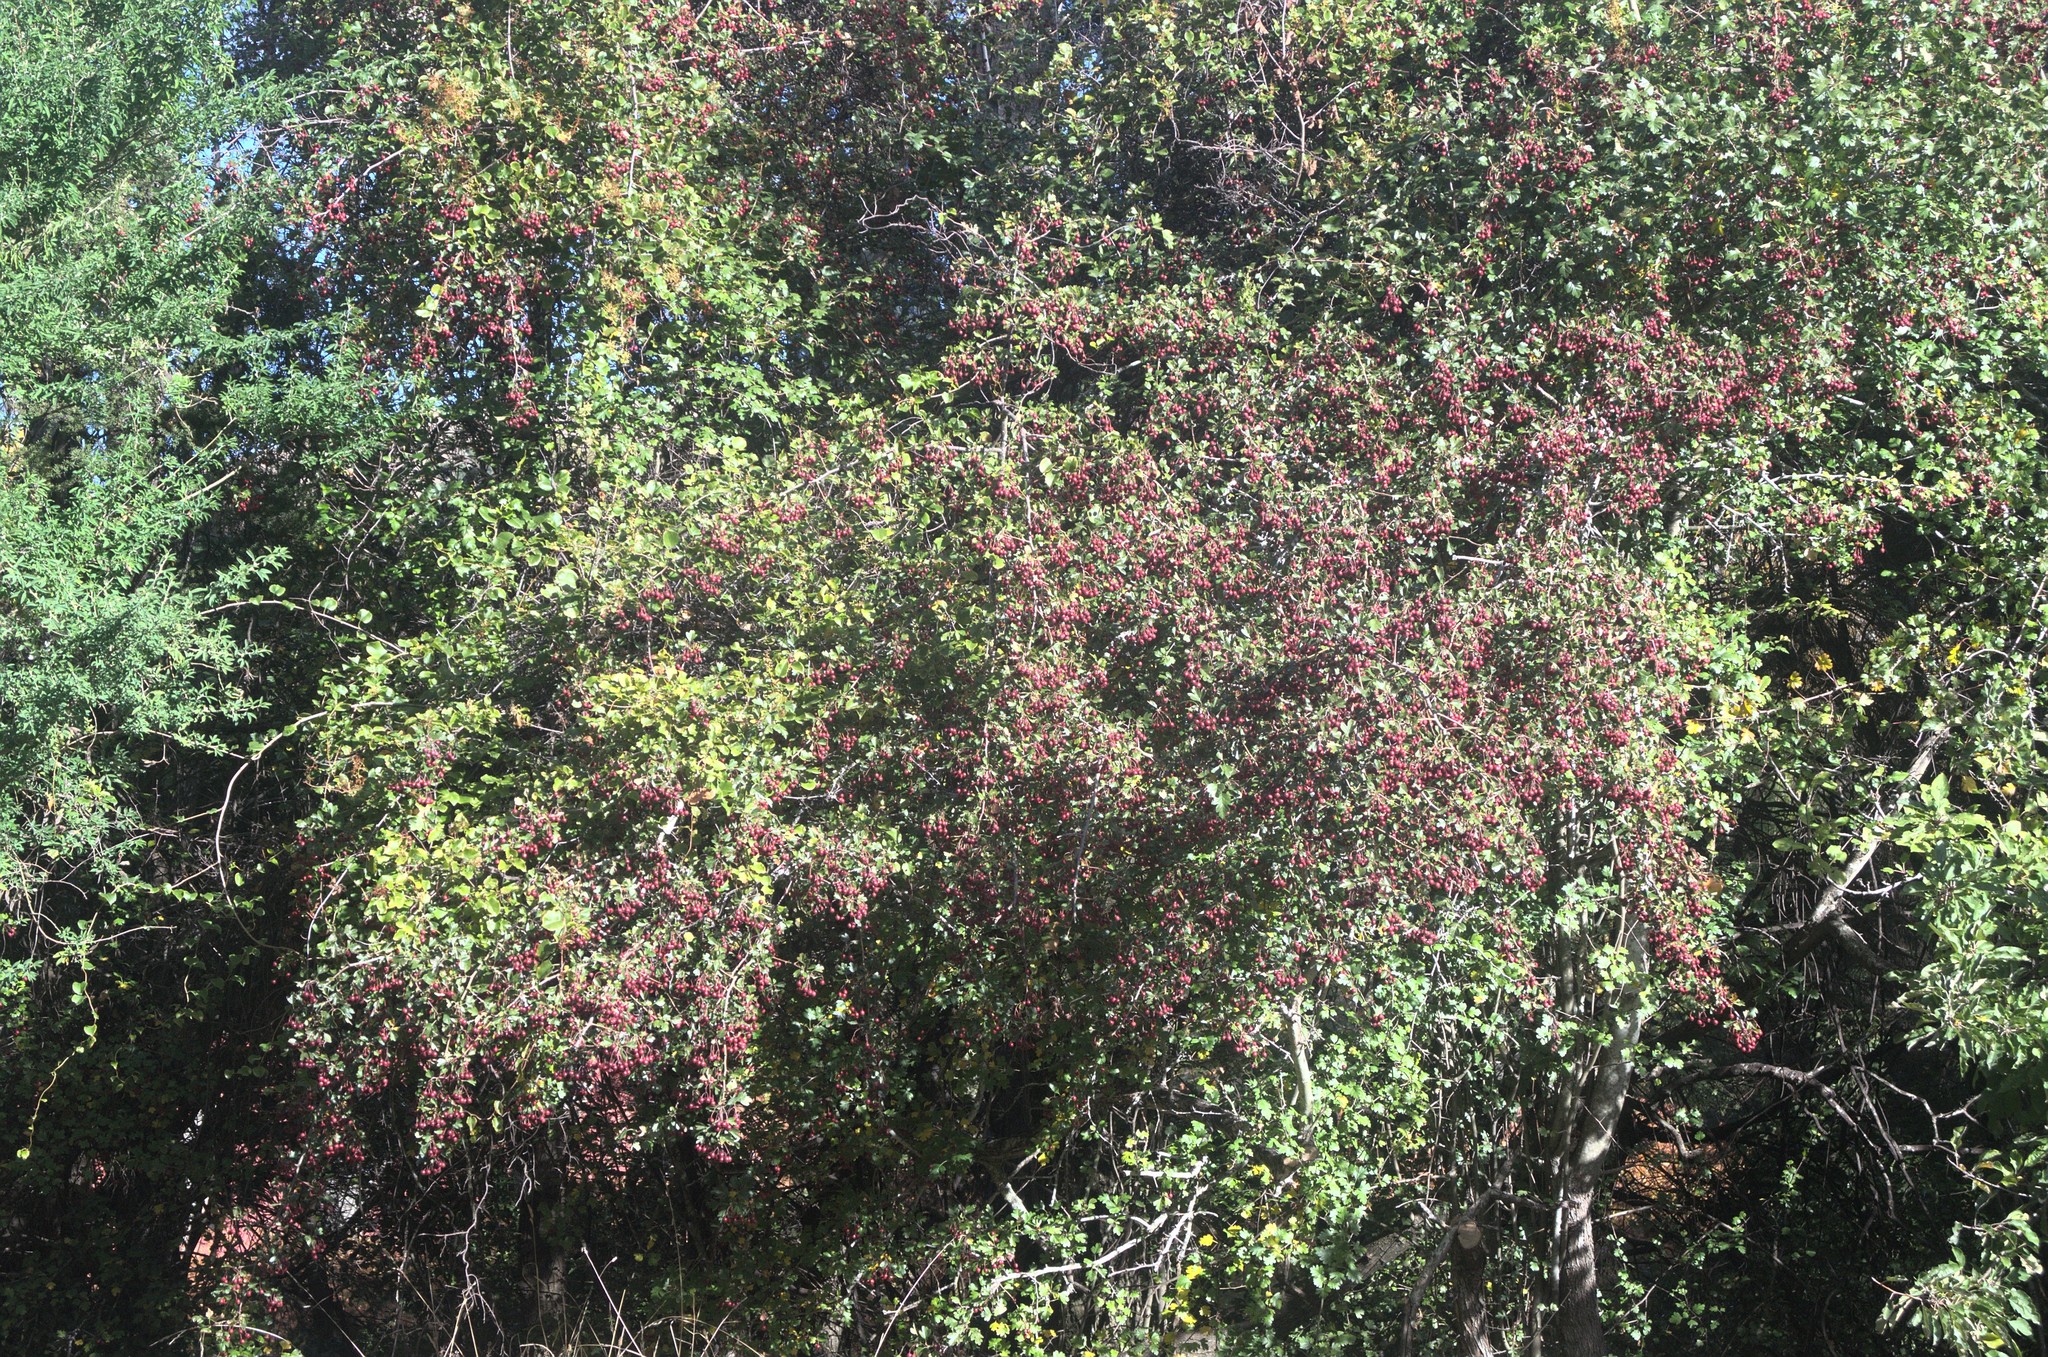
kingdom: Plantae
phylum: Tracheophyta
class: Magnoliopsida
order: Rosales
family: Rosaceae
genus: Crataegus
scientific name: Crataegus monogyna
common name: Hawthorn
